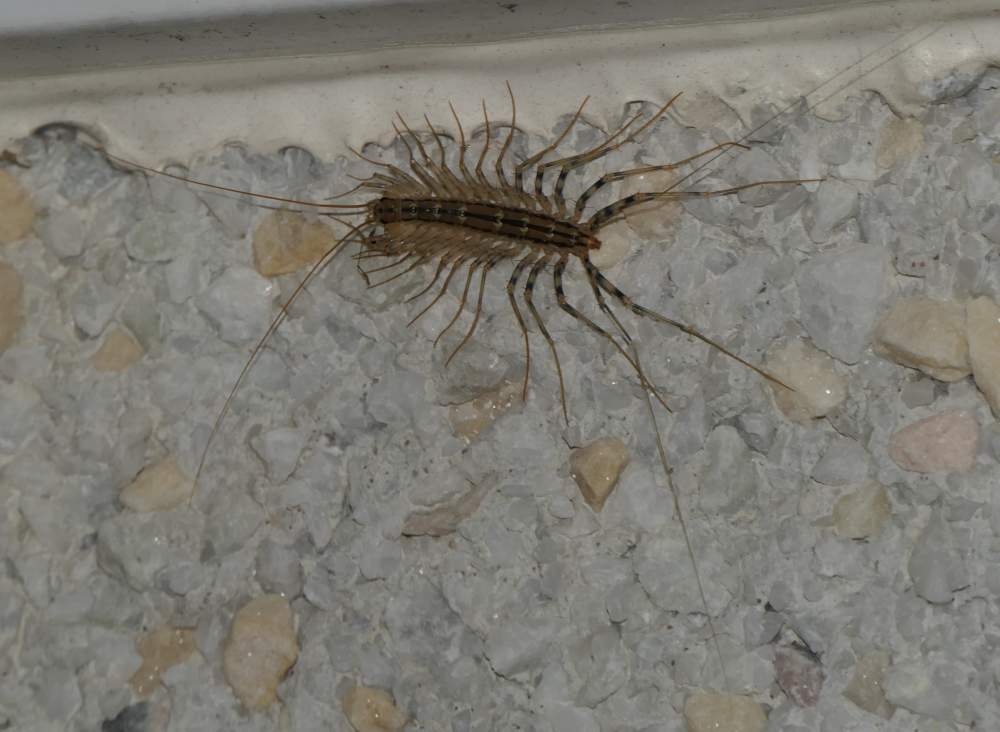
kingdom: Animalia
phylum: Arthropoda
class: Chilopoda
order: Scutigeromorpha
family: Scutigeridae
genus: Scutigera
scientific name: Scutigera coleoptrata
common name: House centipede
